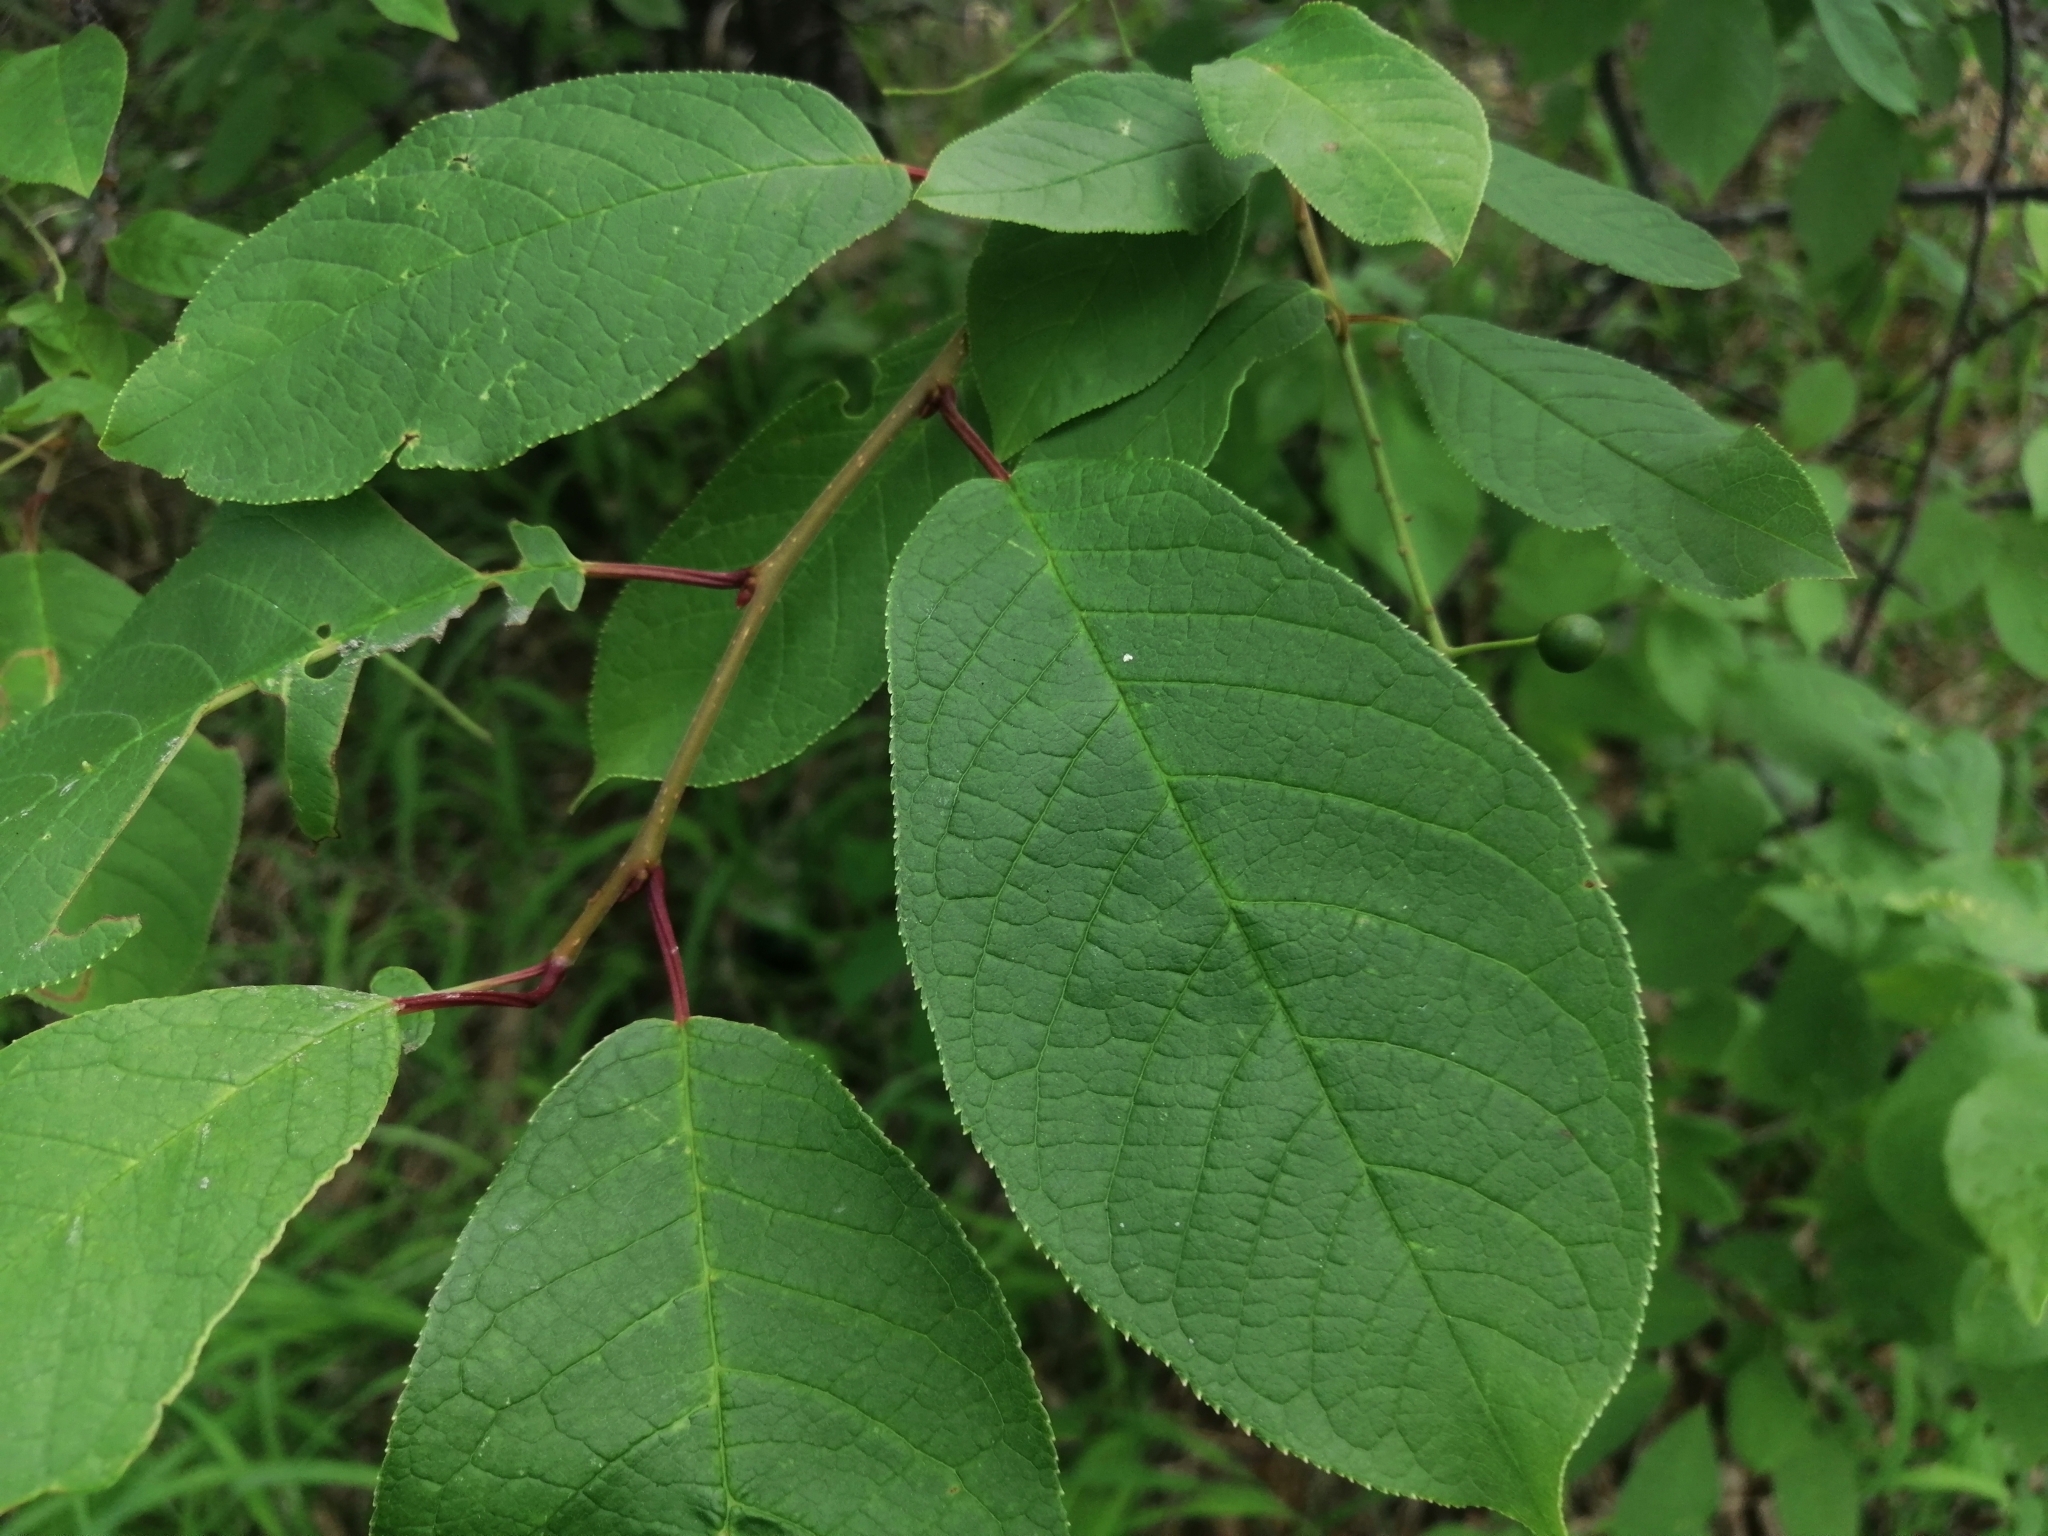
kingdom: Plantae
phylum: Tracheophyta
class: Magnoliopsida
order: Rosales
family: Rosaceae
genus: Prunus
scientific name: Prunus padus
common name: Bird cherry
